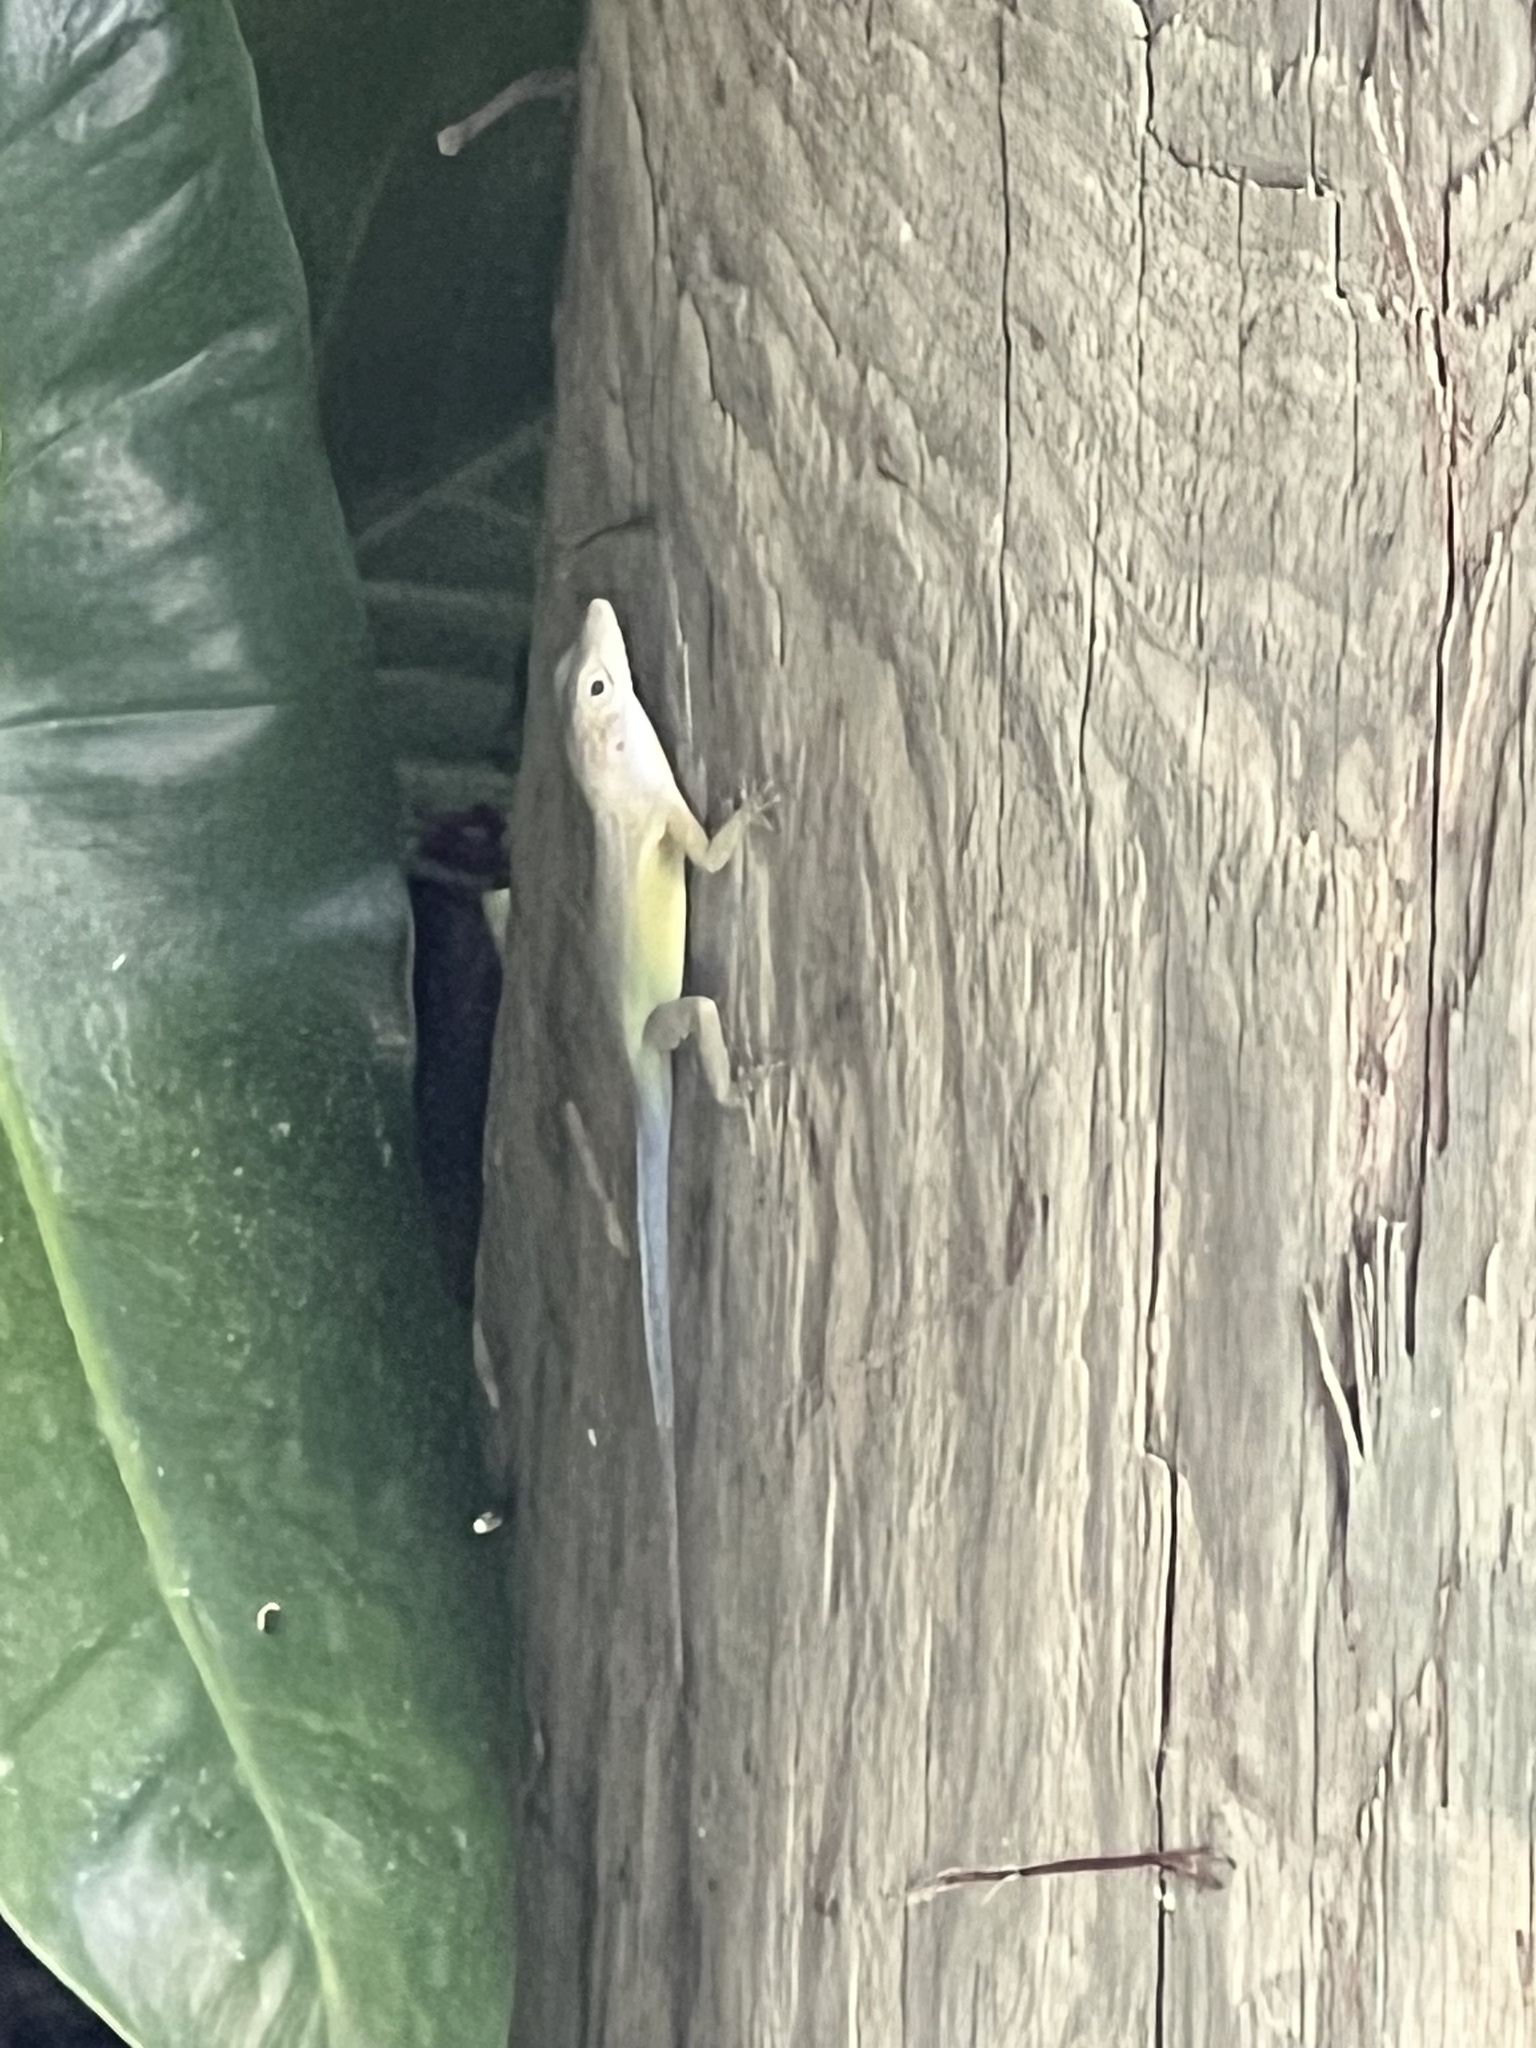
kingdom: Animalia
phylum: Chordata
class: Squamata
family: Dactyloidae
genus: Anolis
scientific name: Anolis grahami
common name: Graham's anole
